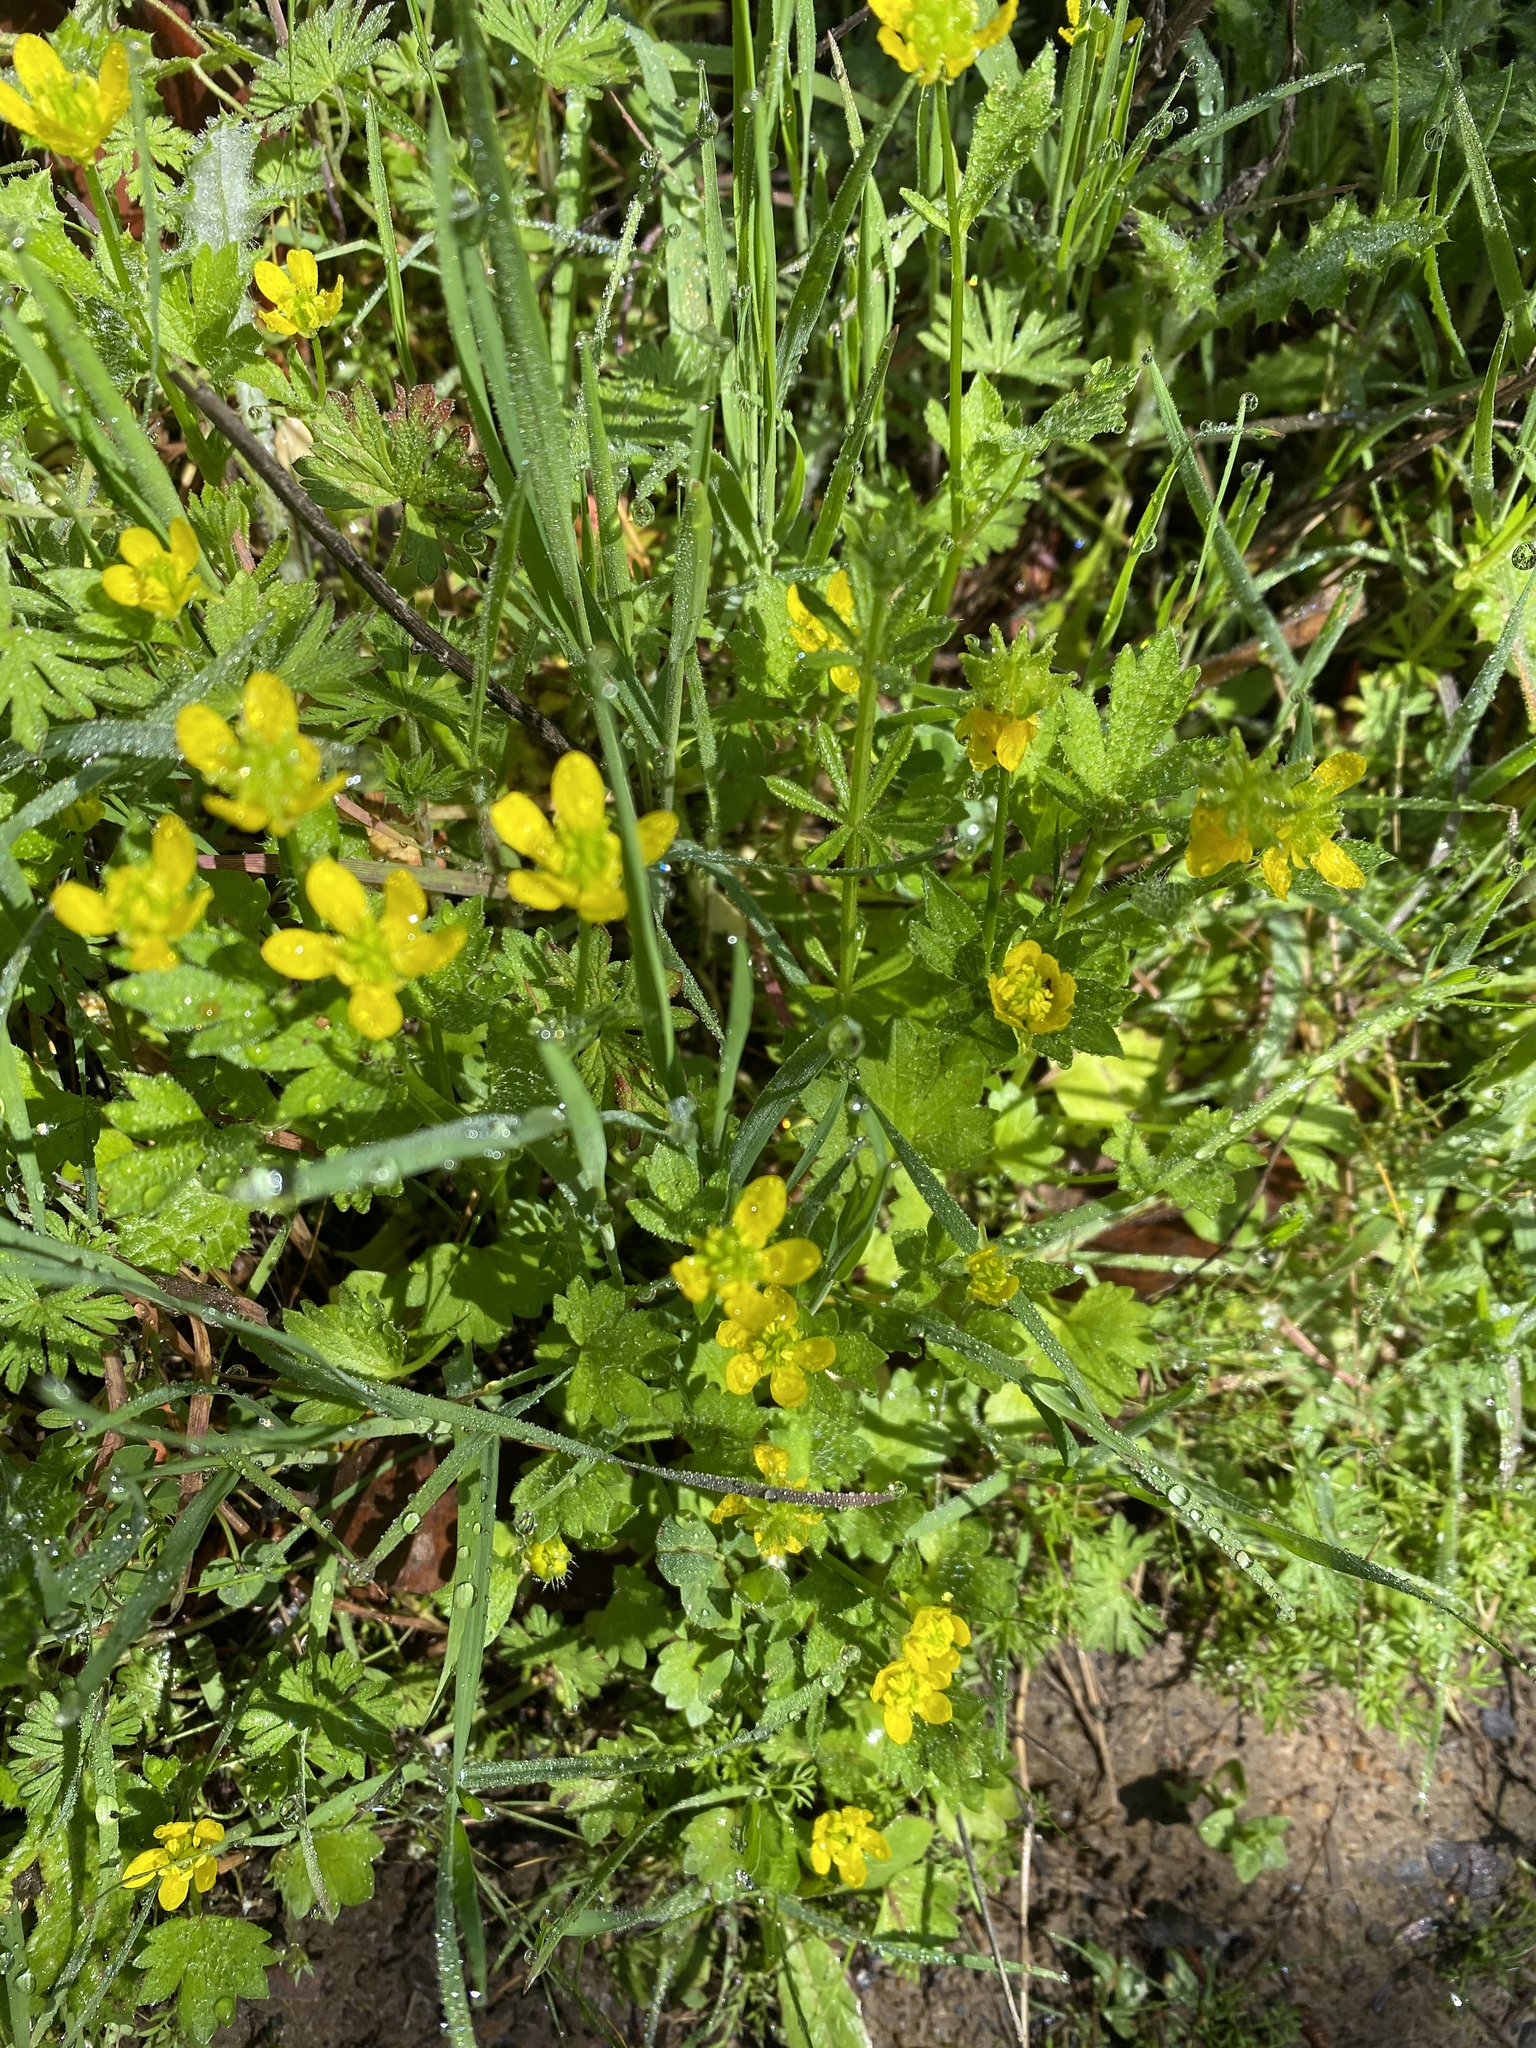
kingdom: Plantae
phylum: Tracheophyta
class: Magnoliopsida
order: Ranunculales
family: Ranunculaceae
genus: Ranunculus
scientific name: Ranunculus muricatus
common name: Rough-fruited buttercup
